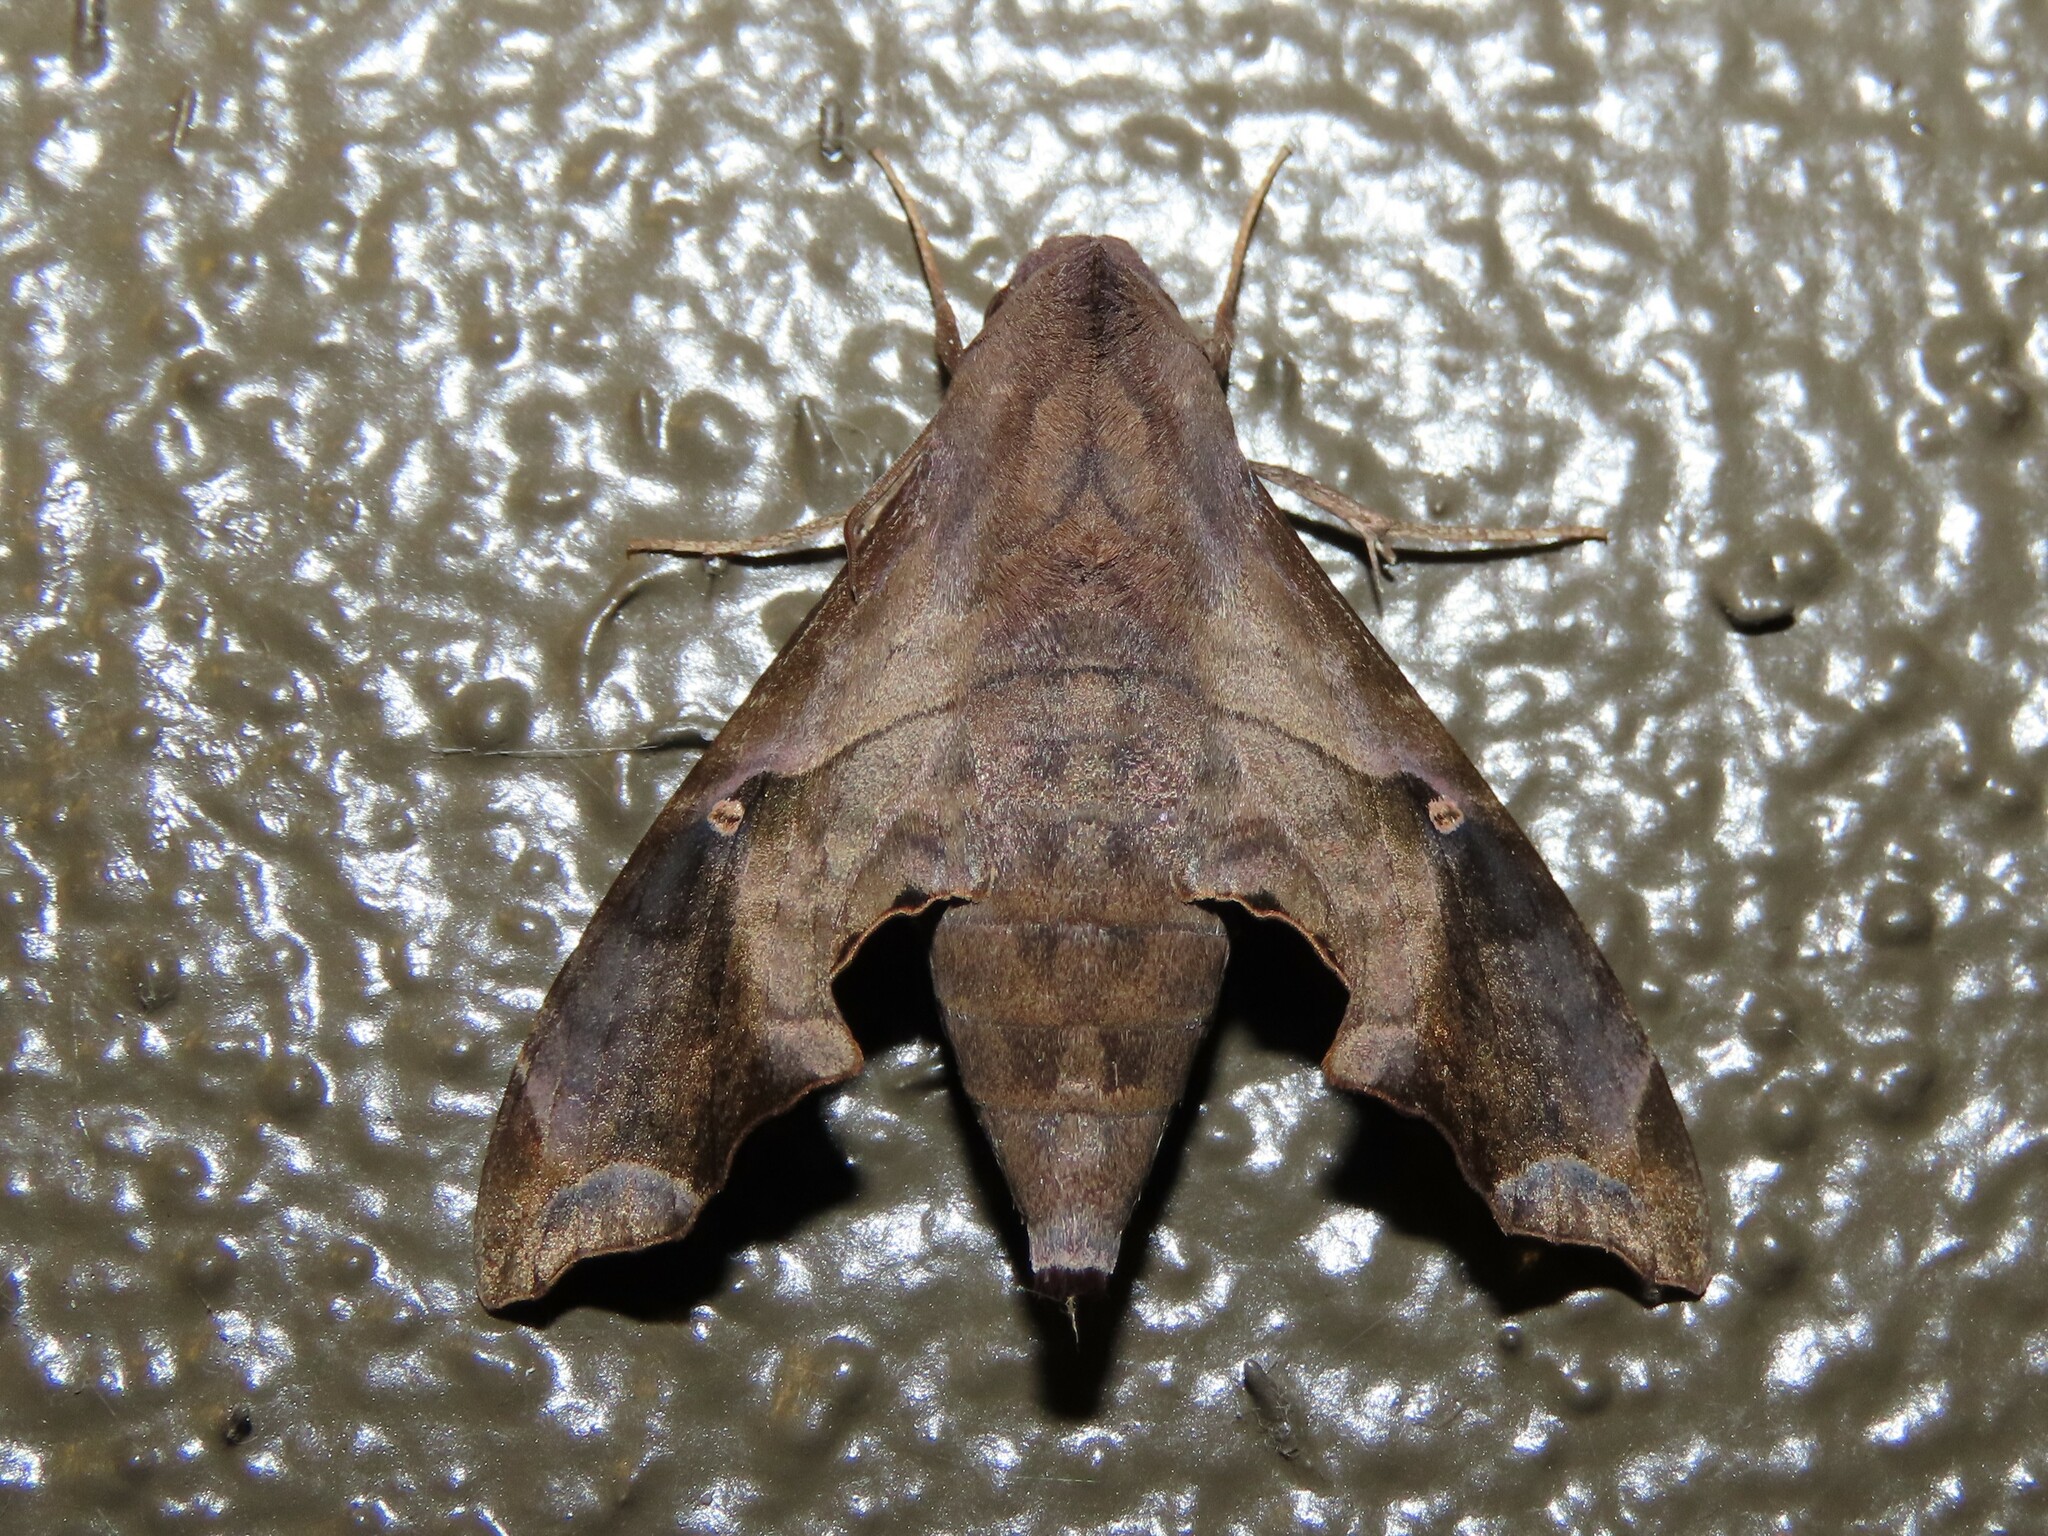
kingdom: Animalia
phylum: Arthropoda
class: Insecta
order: Lepidoptera
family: Sphingidae
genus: Enyo
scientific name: Enyo lugubris
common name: Mournful sphinx
